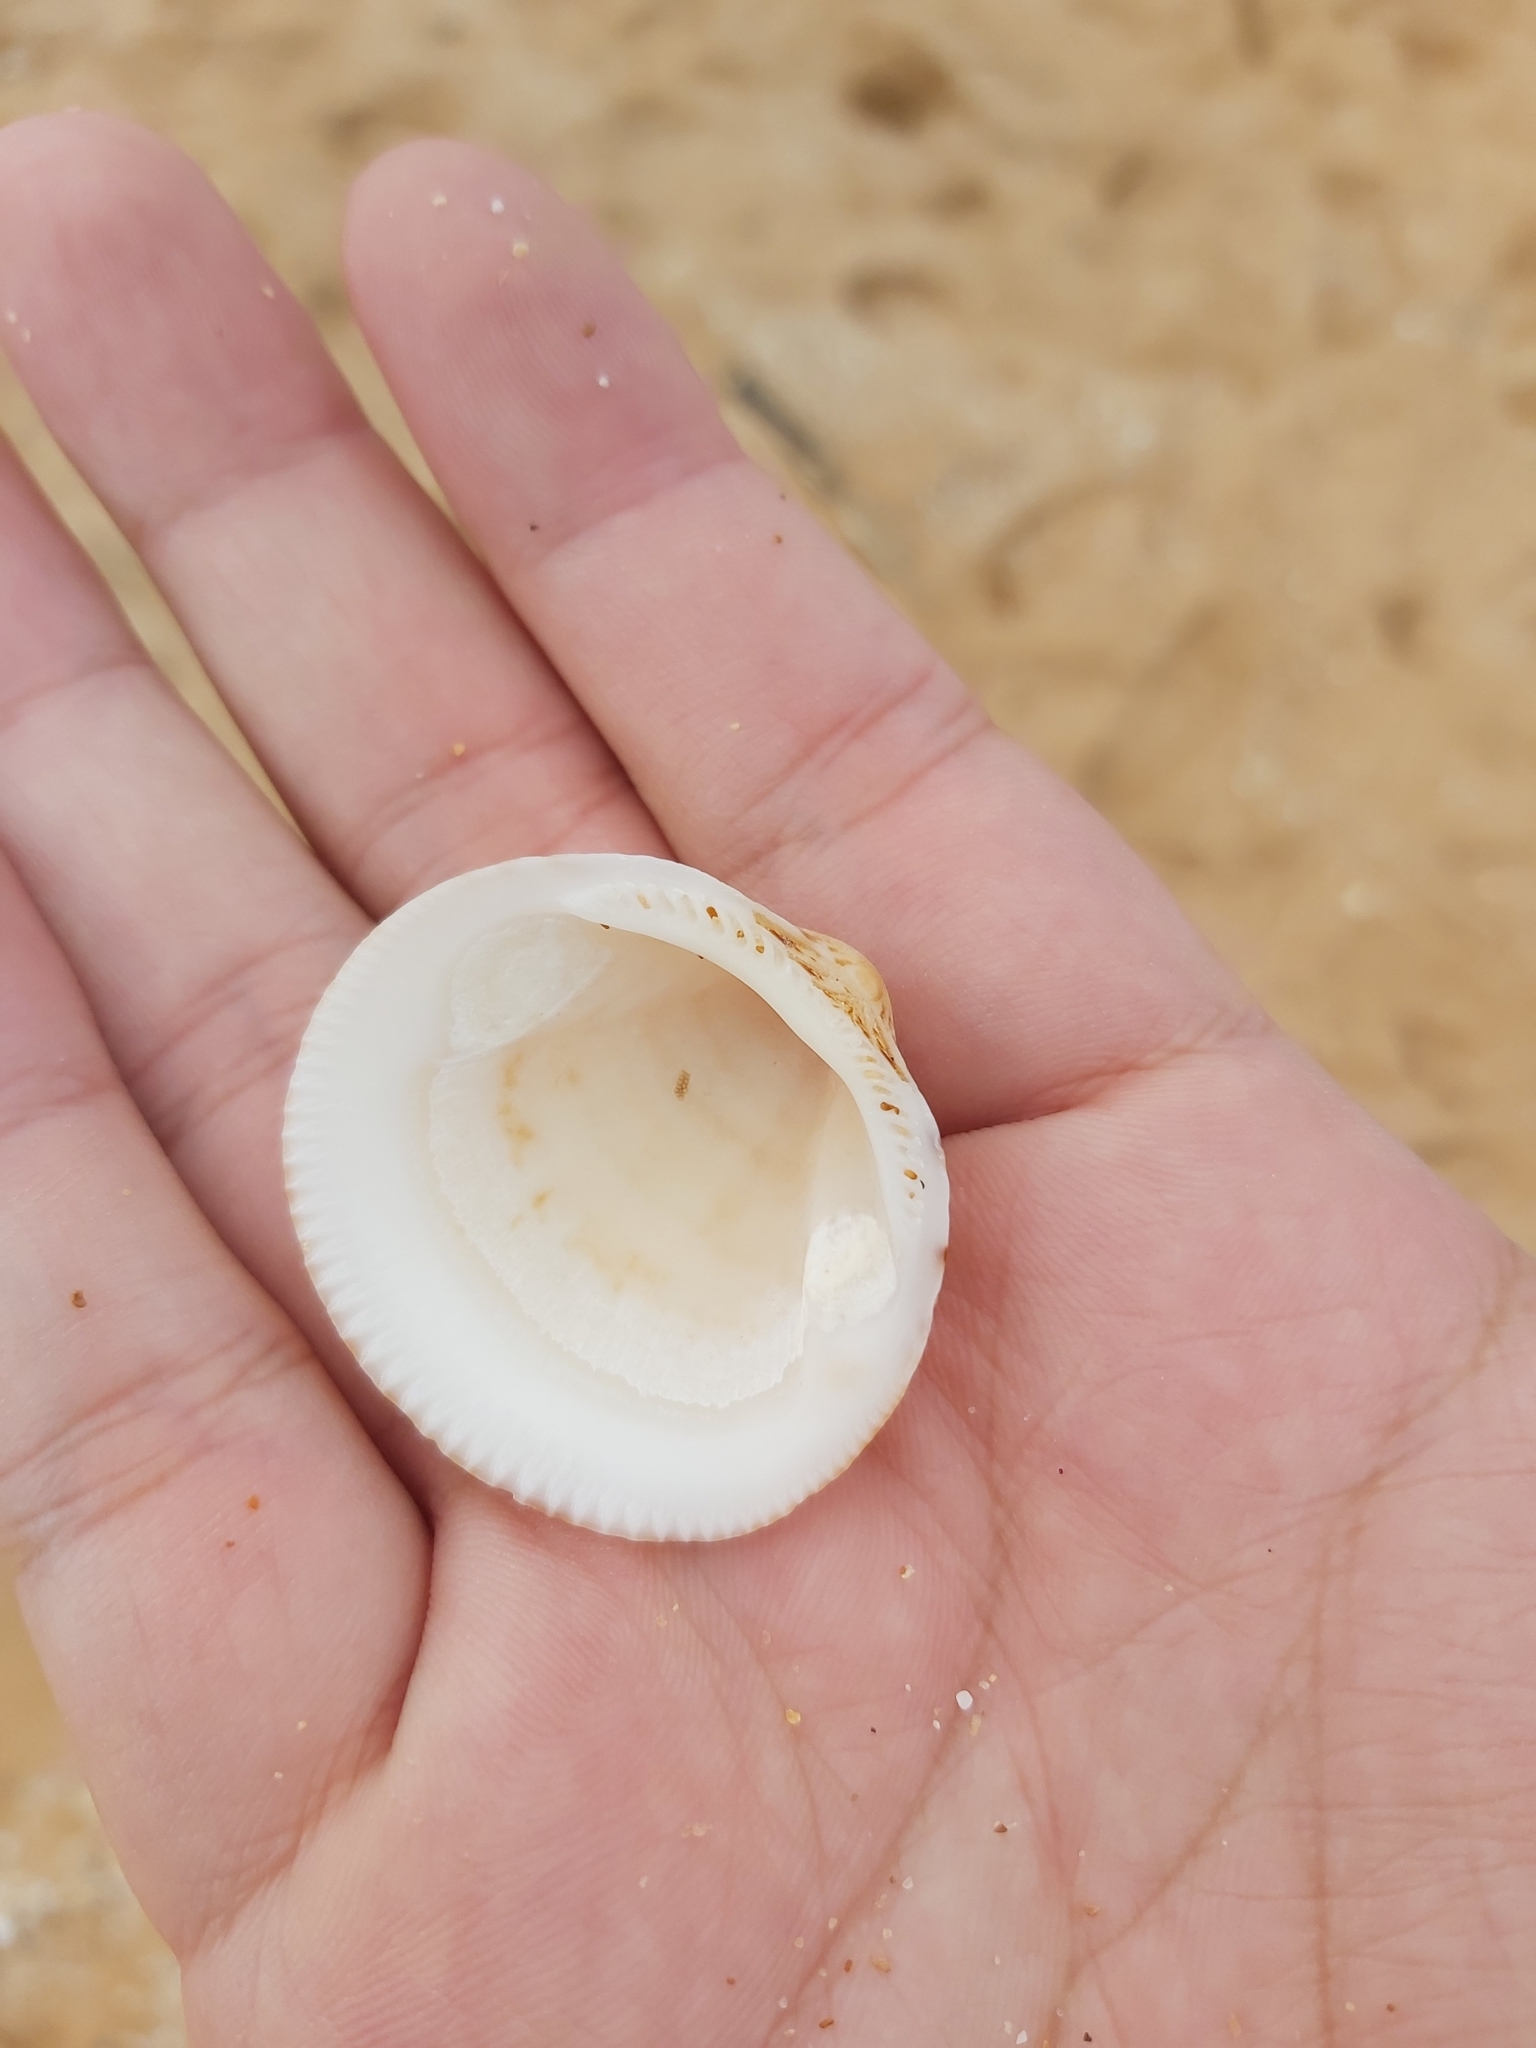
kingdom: Animalia
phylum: Mollusca
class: Bivalvia
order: Arcida
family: Glycymerididae
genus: Glycymeris
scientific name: Glycymeris grayana
